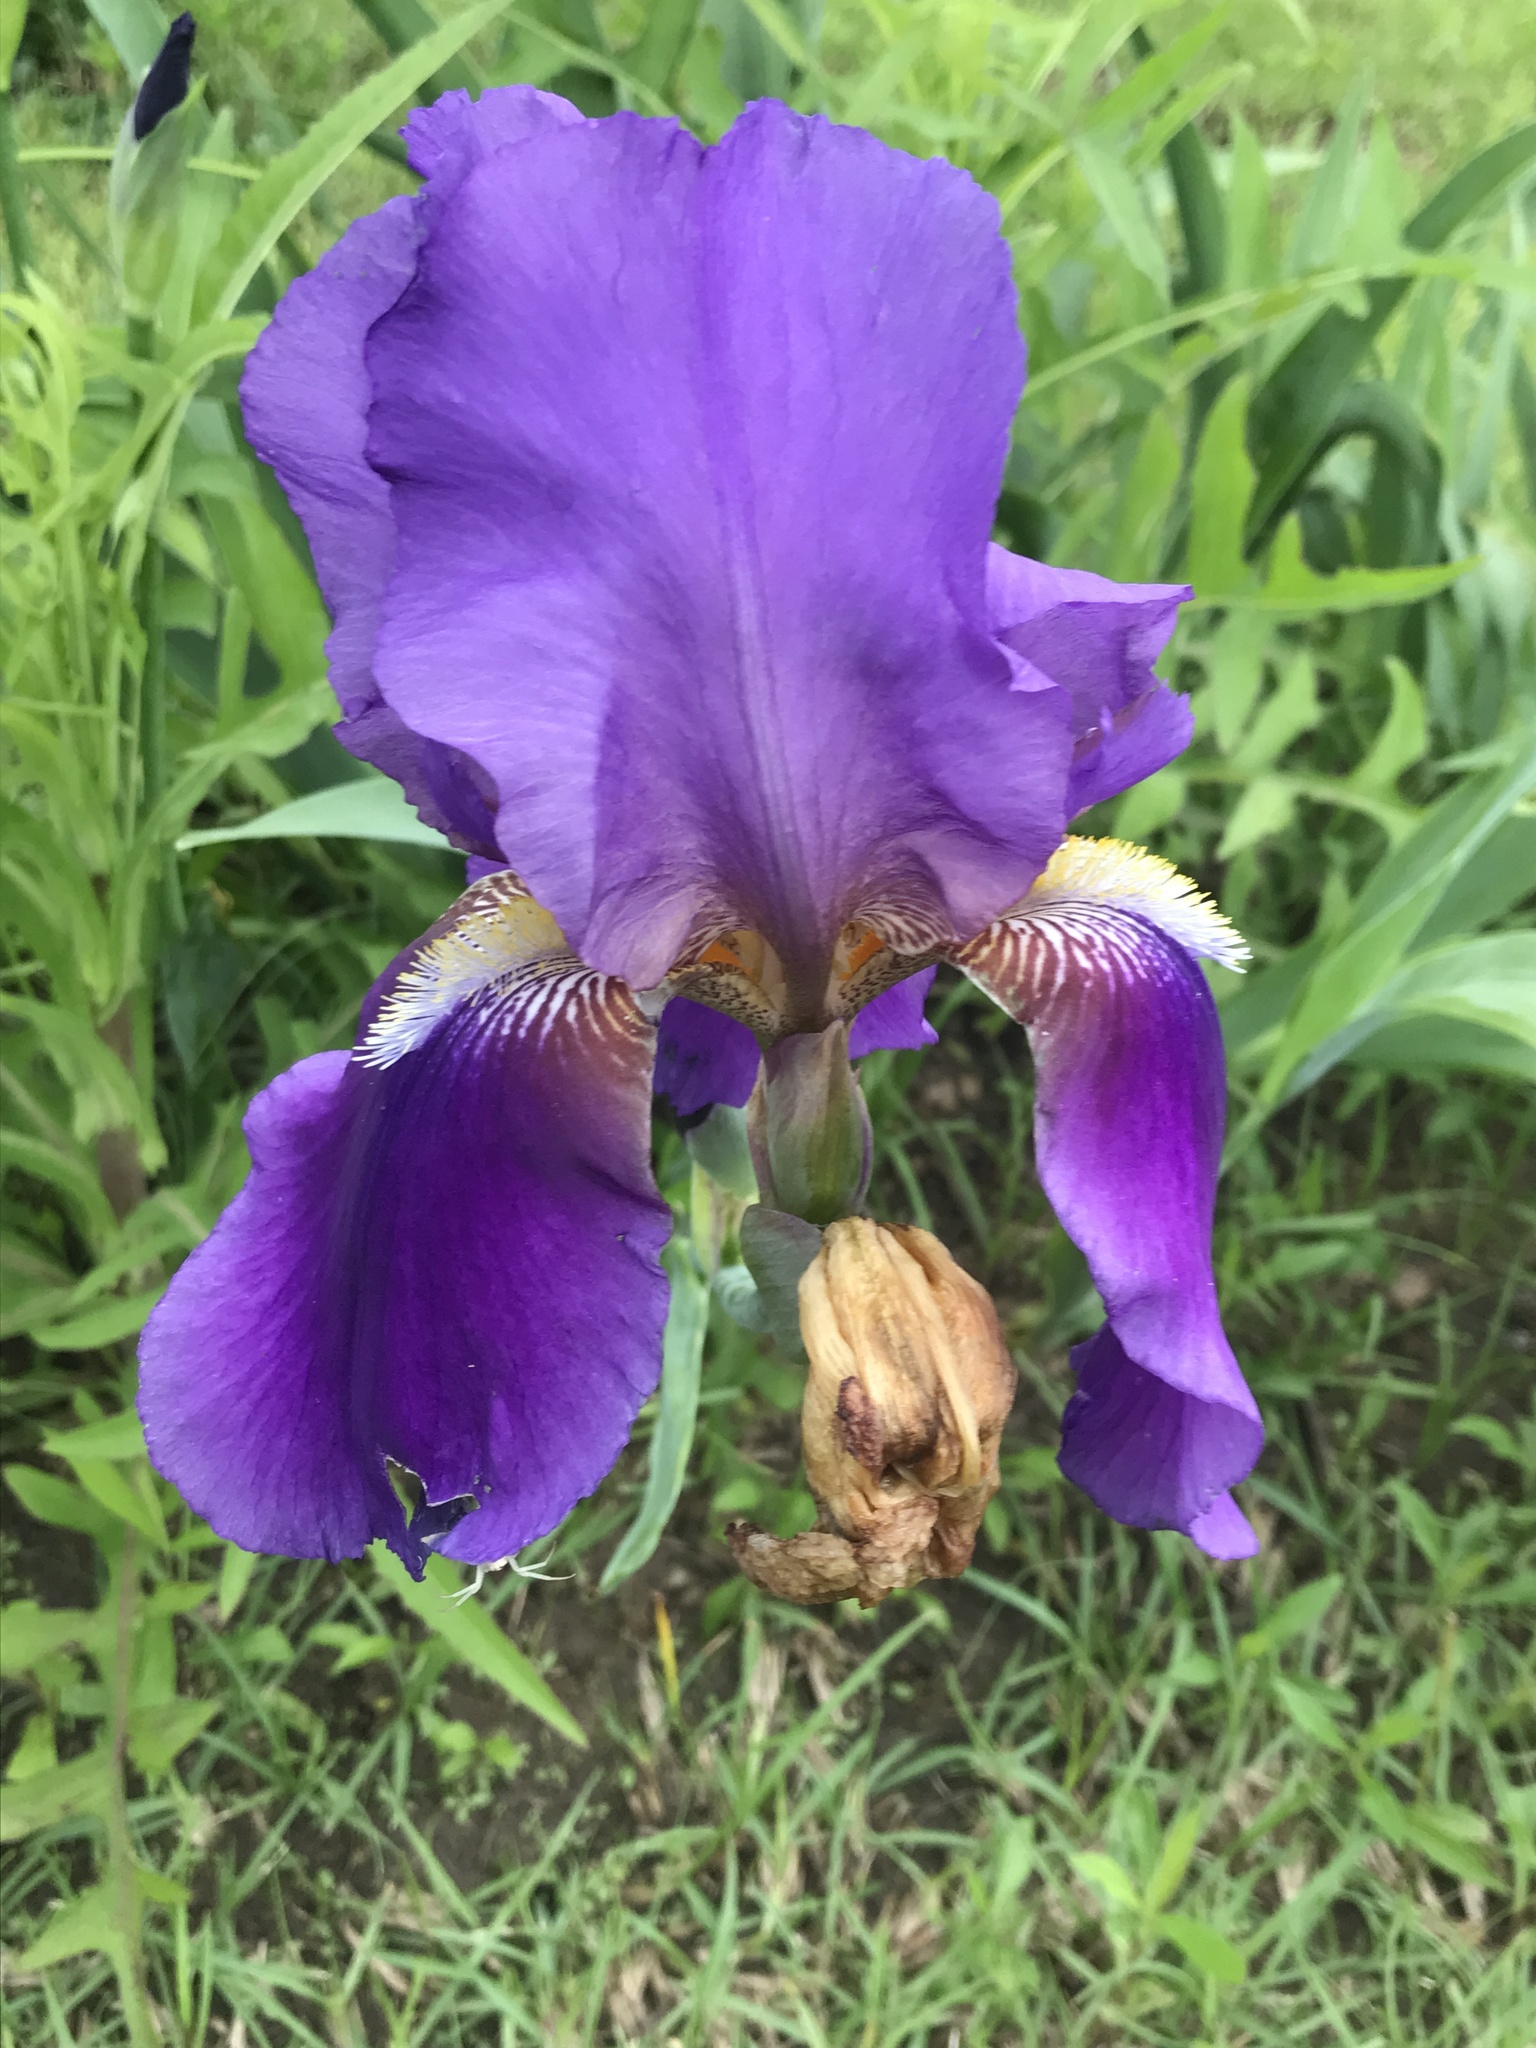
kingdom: Plantae
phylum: Tracheophyta
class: Liliopsida
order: Asparagales
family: Iridaceae
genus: Iris
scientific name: Iris hybrida
